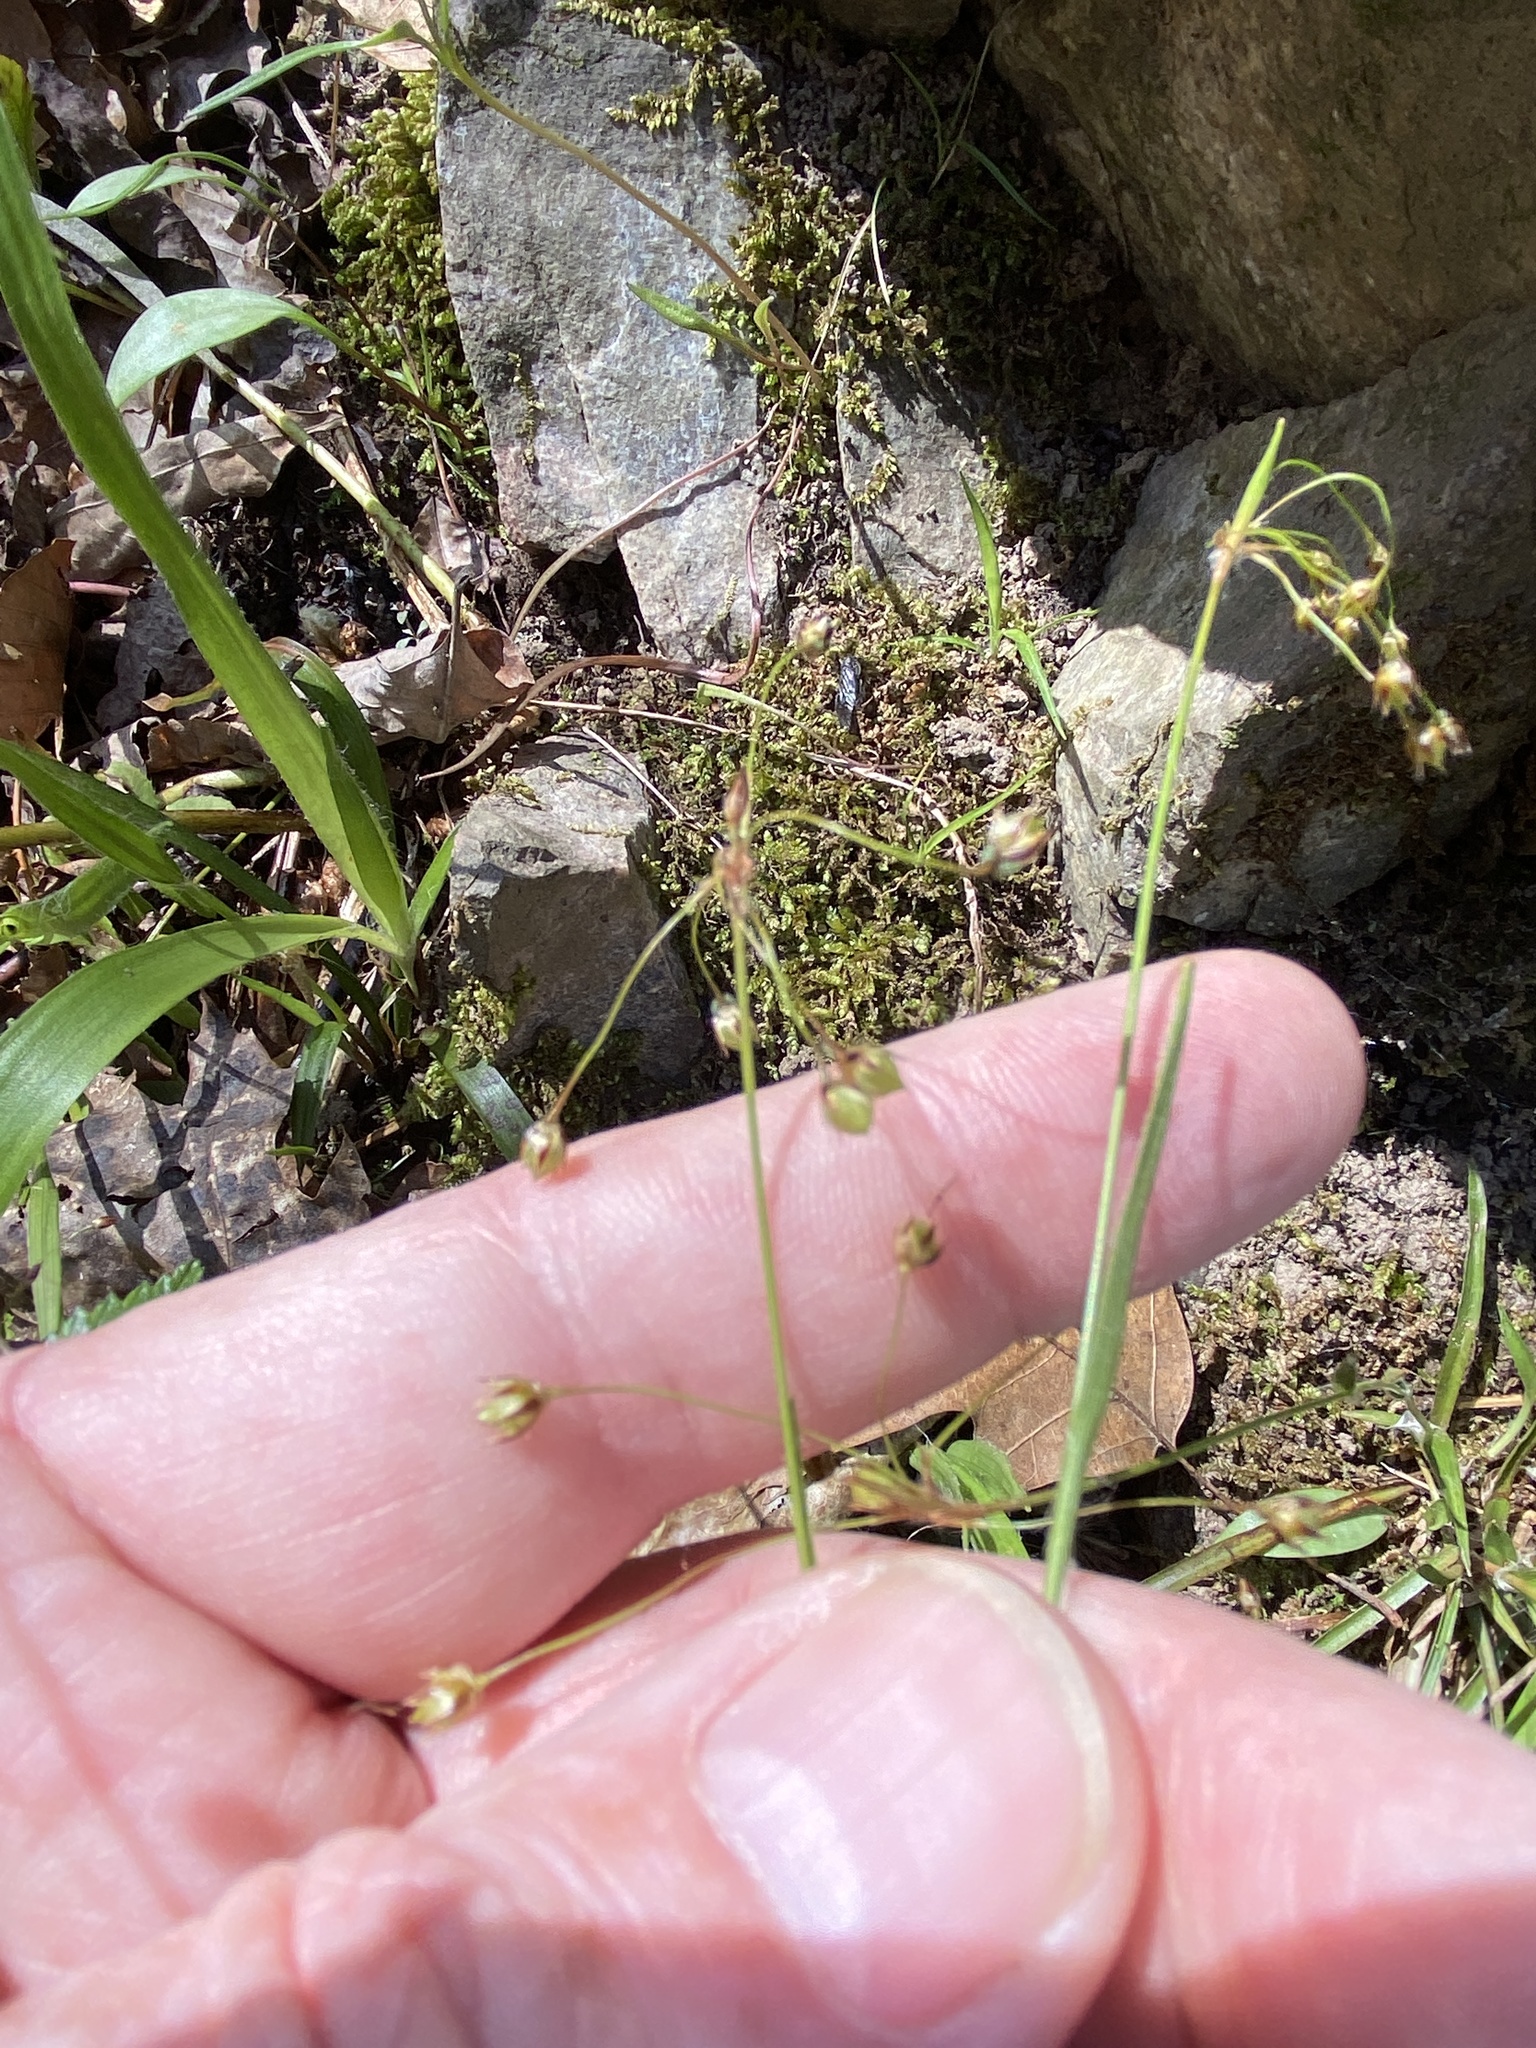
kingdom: Plantae
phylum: Tracheophyta
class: Liliopsida
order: Poales
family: Juncaceae
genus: Luzula
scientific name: Luzula acuminata
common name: Hairy woodrush
